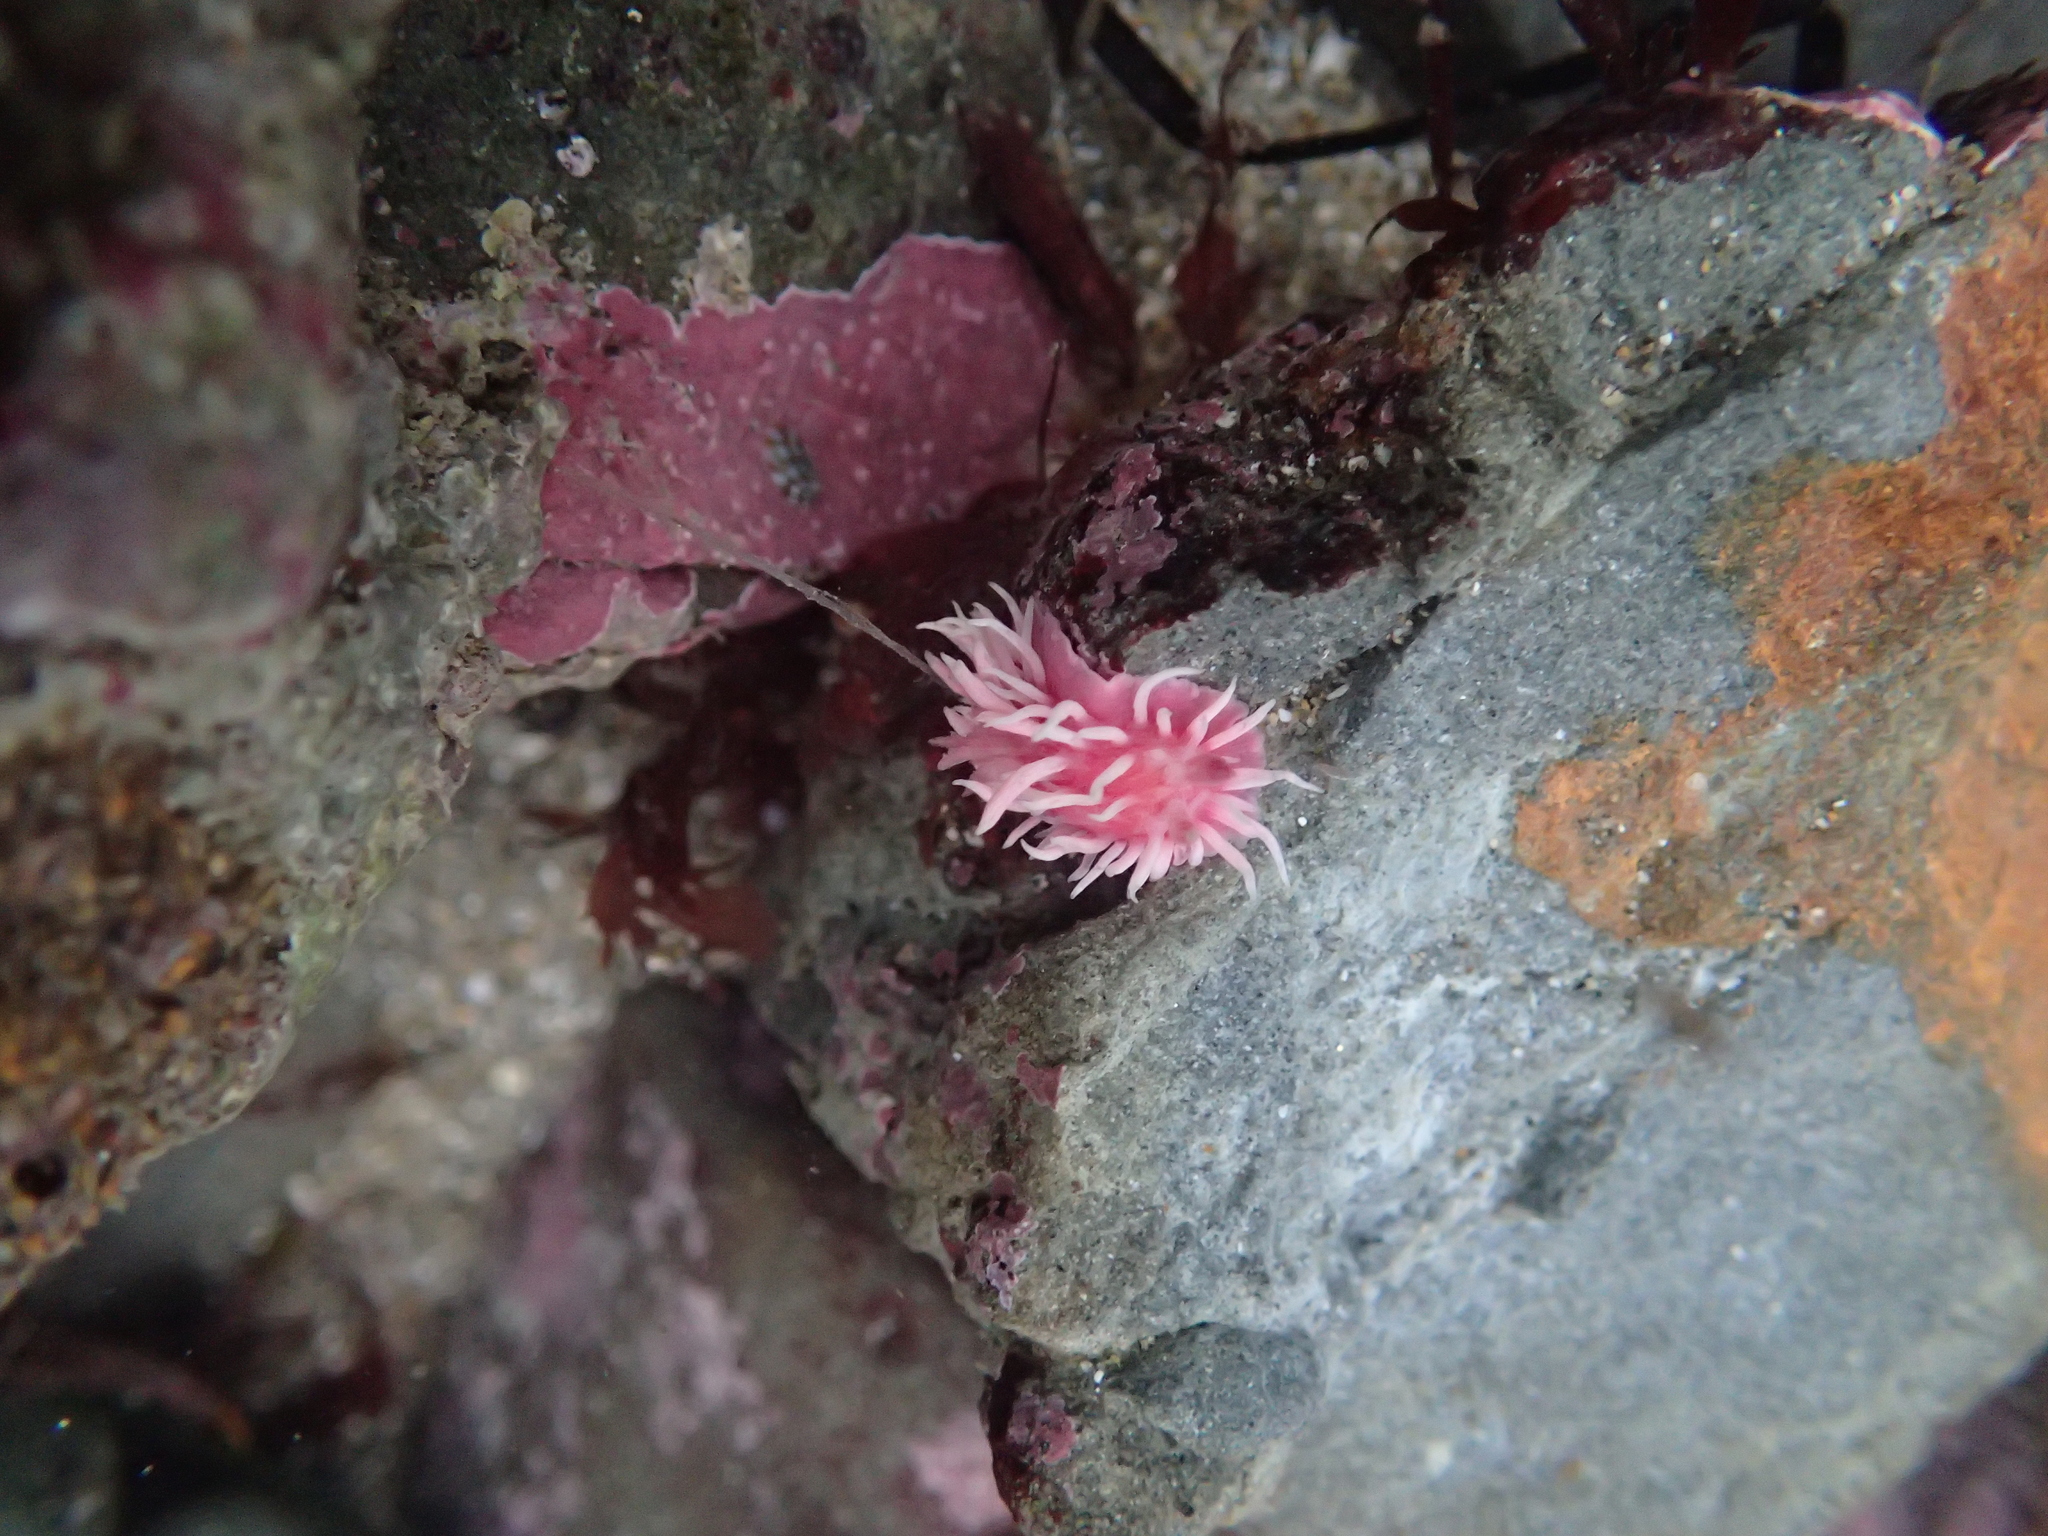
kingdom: Animalia
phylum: Mollusca
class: Gastropoda
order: Nudibranchia
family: Goniodorididae
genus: Okenia
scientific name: Okenia
